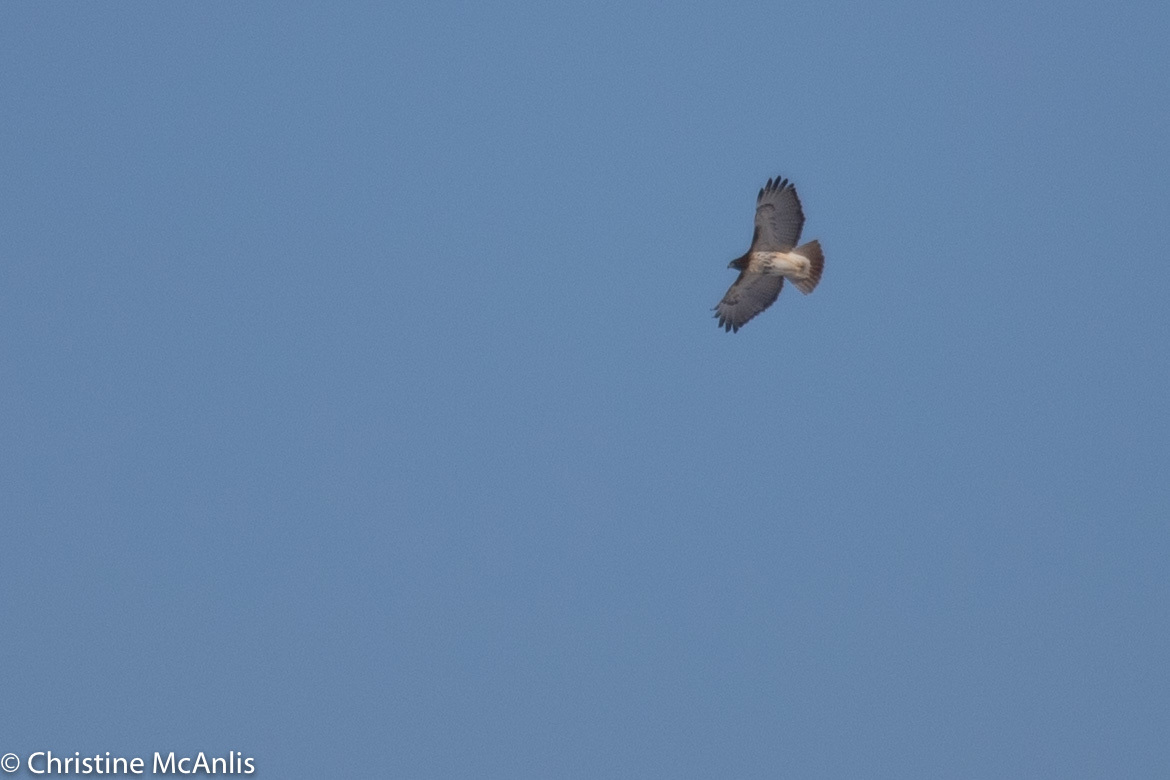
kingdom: Animalia
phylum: Chordata
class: Aves
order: Accipitriformes
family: Accipitridae
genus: Buteo
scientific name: Buteo jamaicensis
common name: Red-tailed hawk
